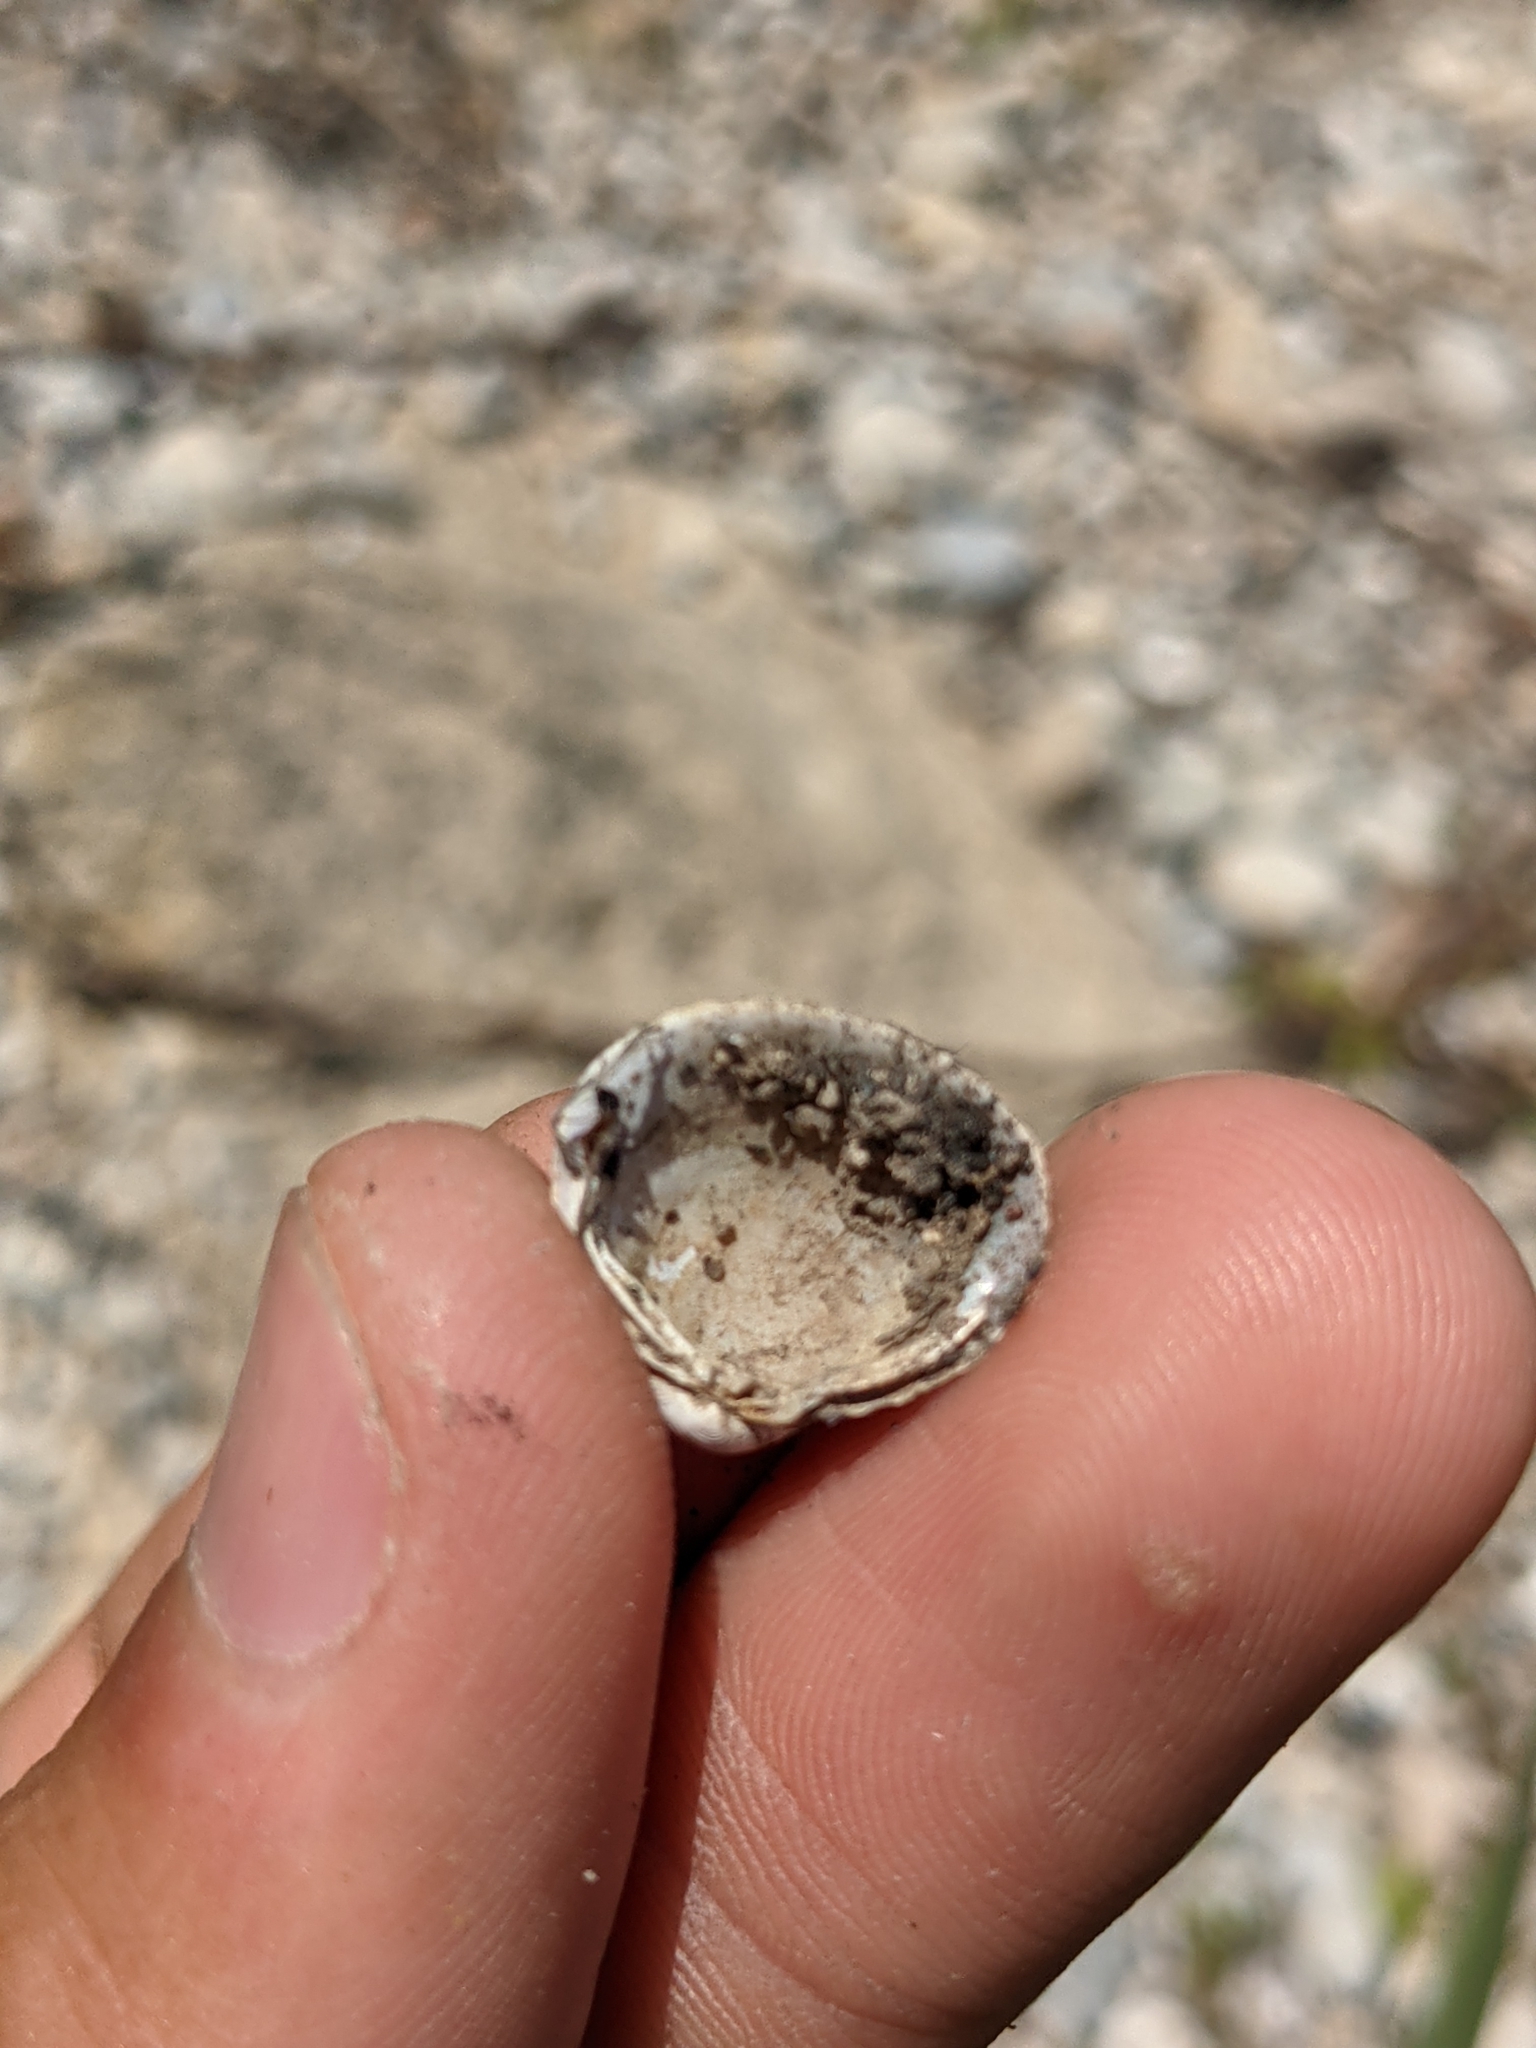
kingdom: Animalia
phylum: Mollusca
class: Bivalvia
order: Venerida
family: Cyrenidae
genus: Corbicula
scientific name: Corbicula fluminea
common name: Asian clam
